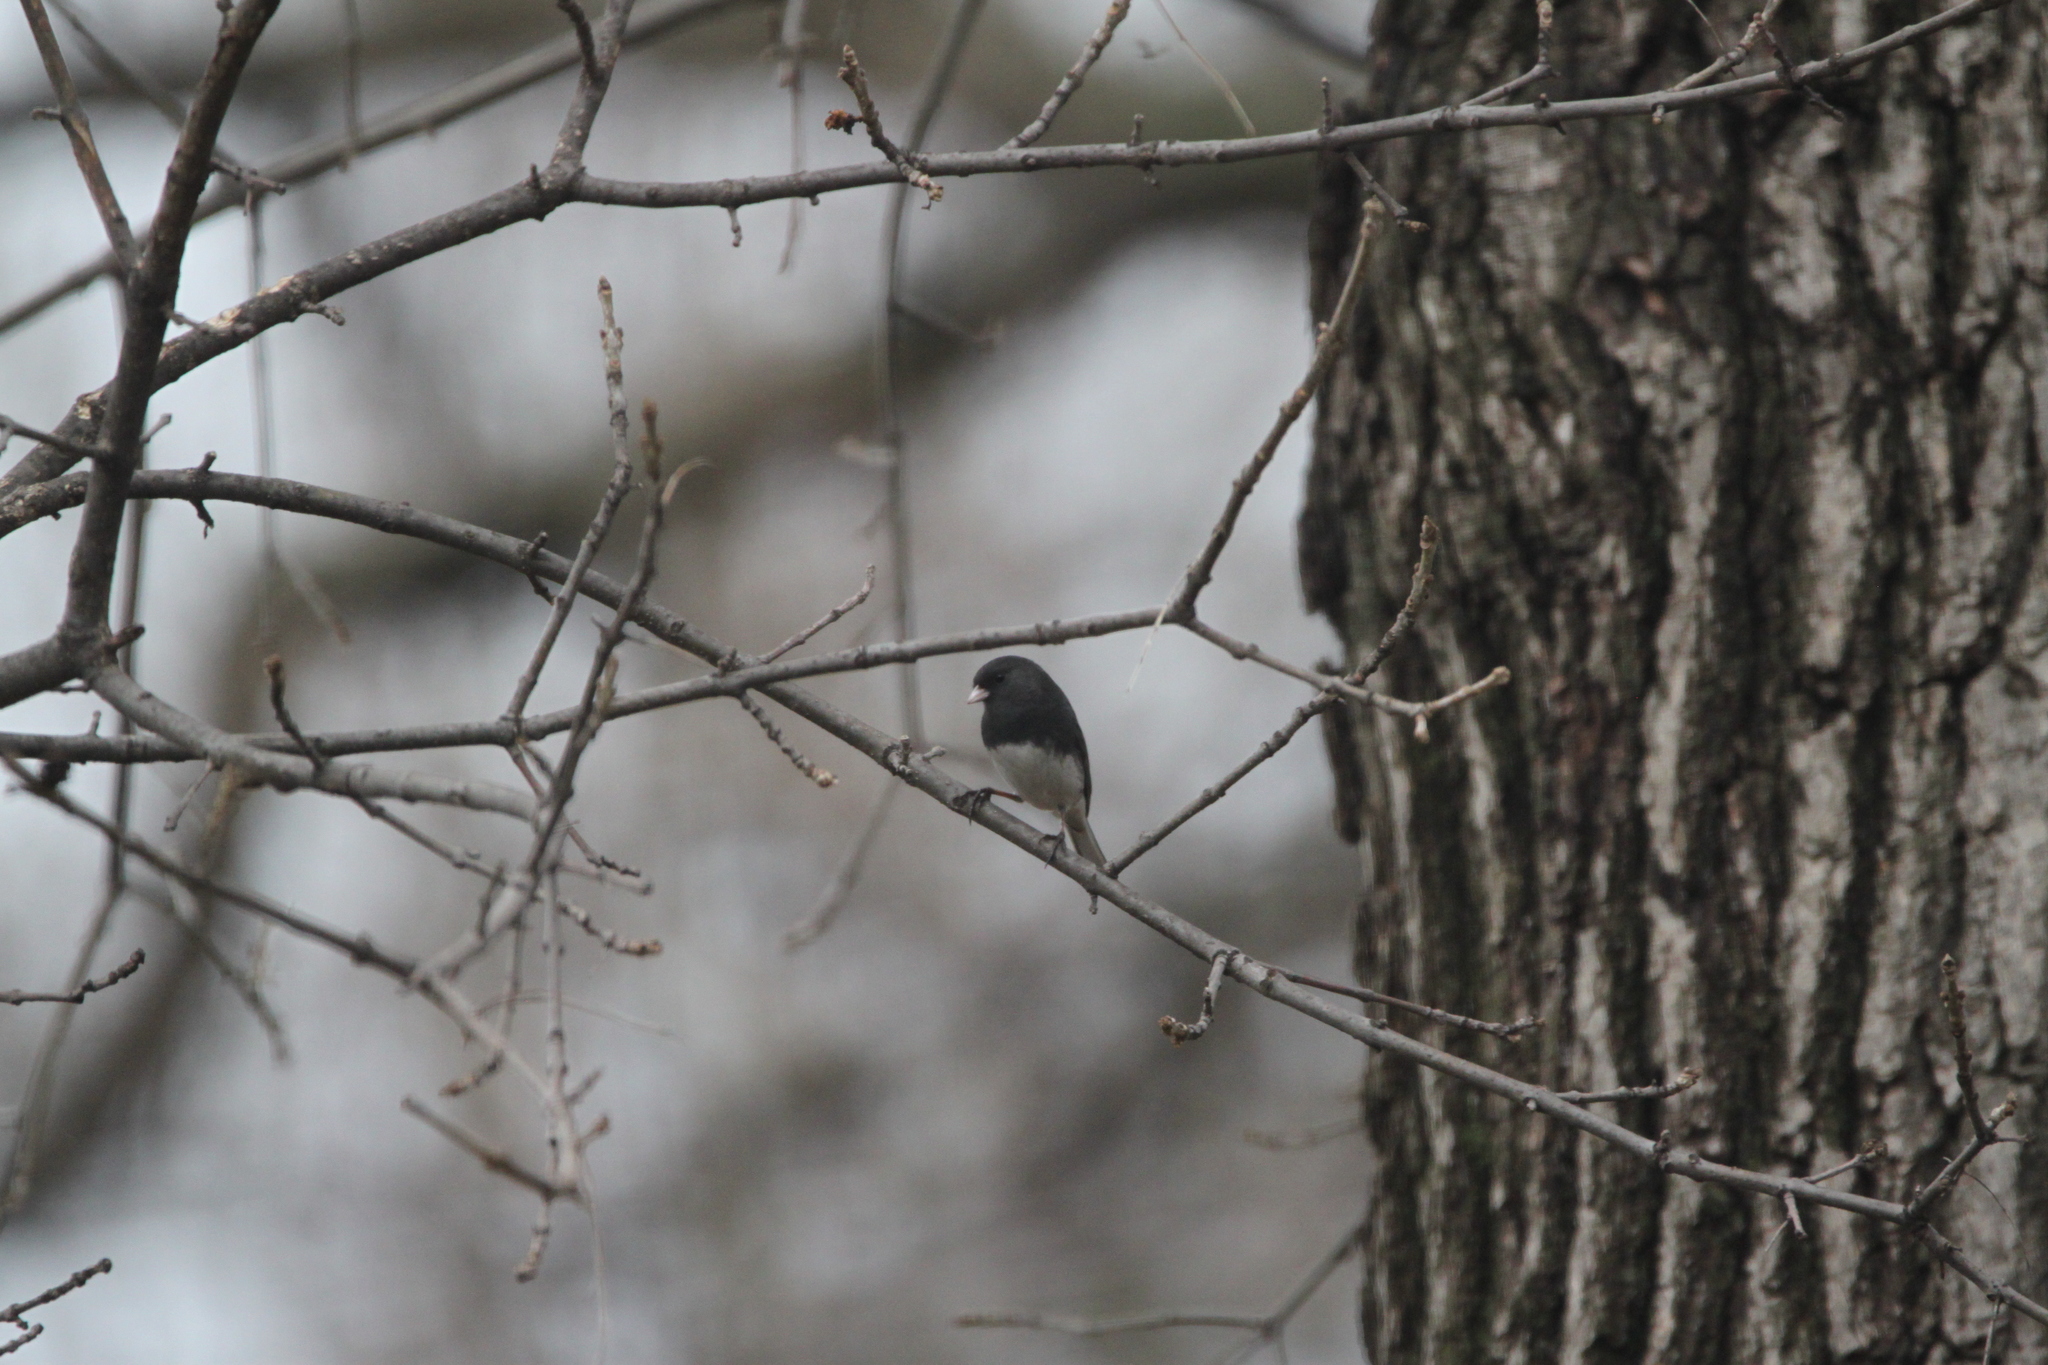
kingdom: Animalia
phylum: Chordata
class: Aves
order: Passeriformes
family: Passerellidae
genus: Junco
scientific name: Junco hyemalis
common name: Dark-eyed junco
